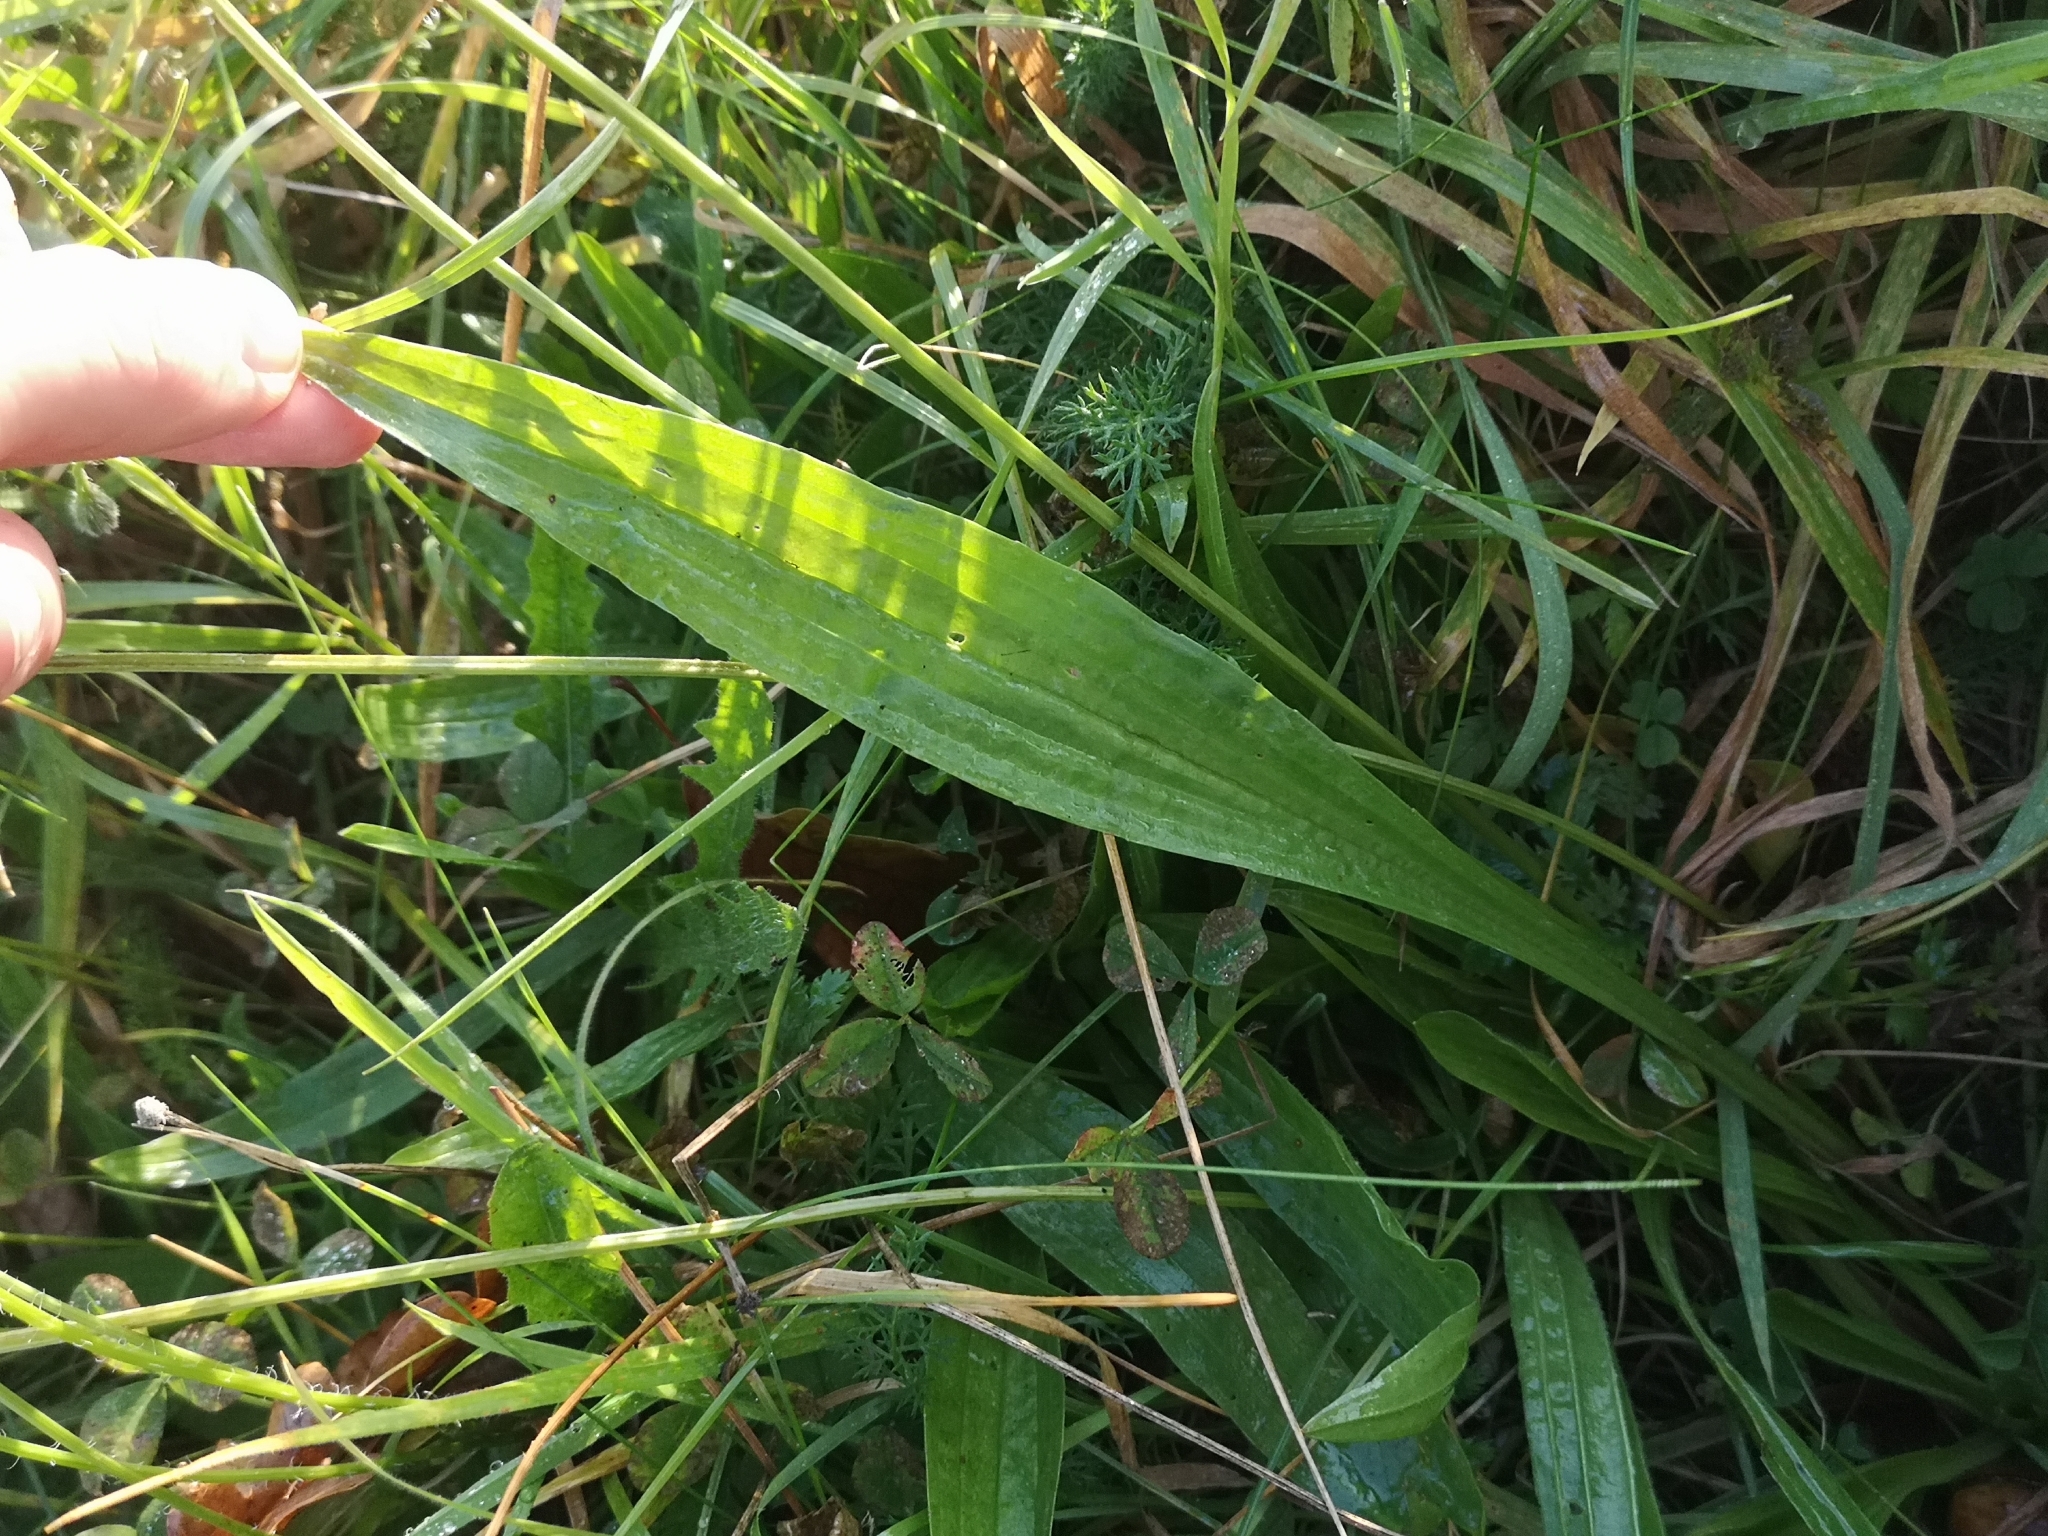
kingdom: Plantae
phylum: Tracheophyta
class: Magnoliopsida
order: Lamiales
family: Plantaginaceae
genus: Plantago
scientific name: Plantago lanceolata
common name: Ribwort plantain
